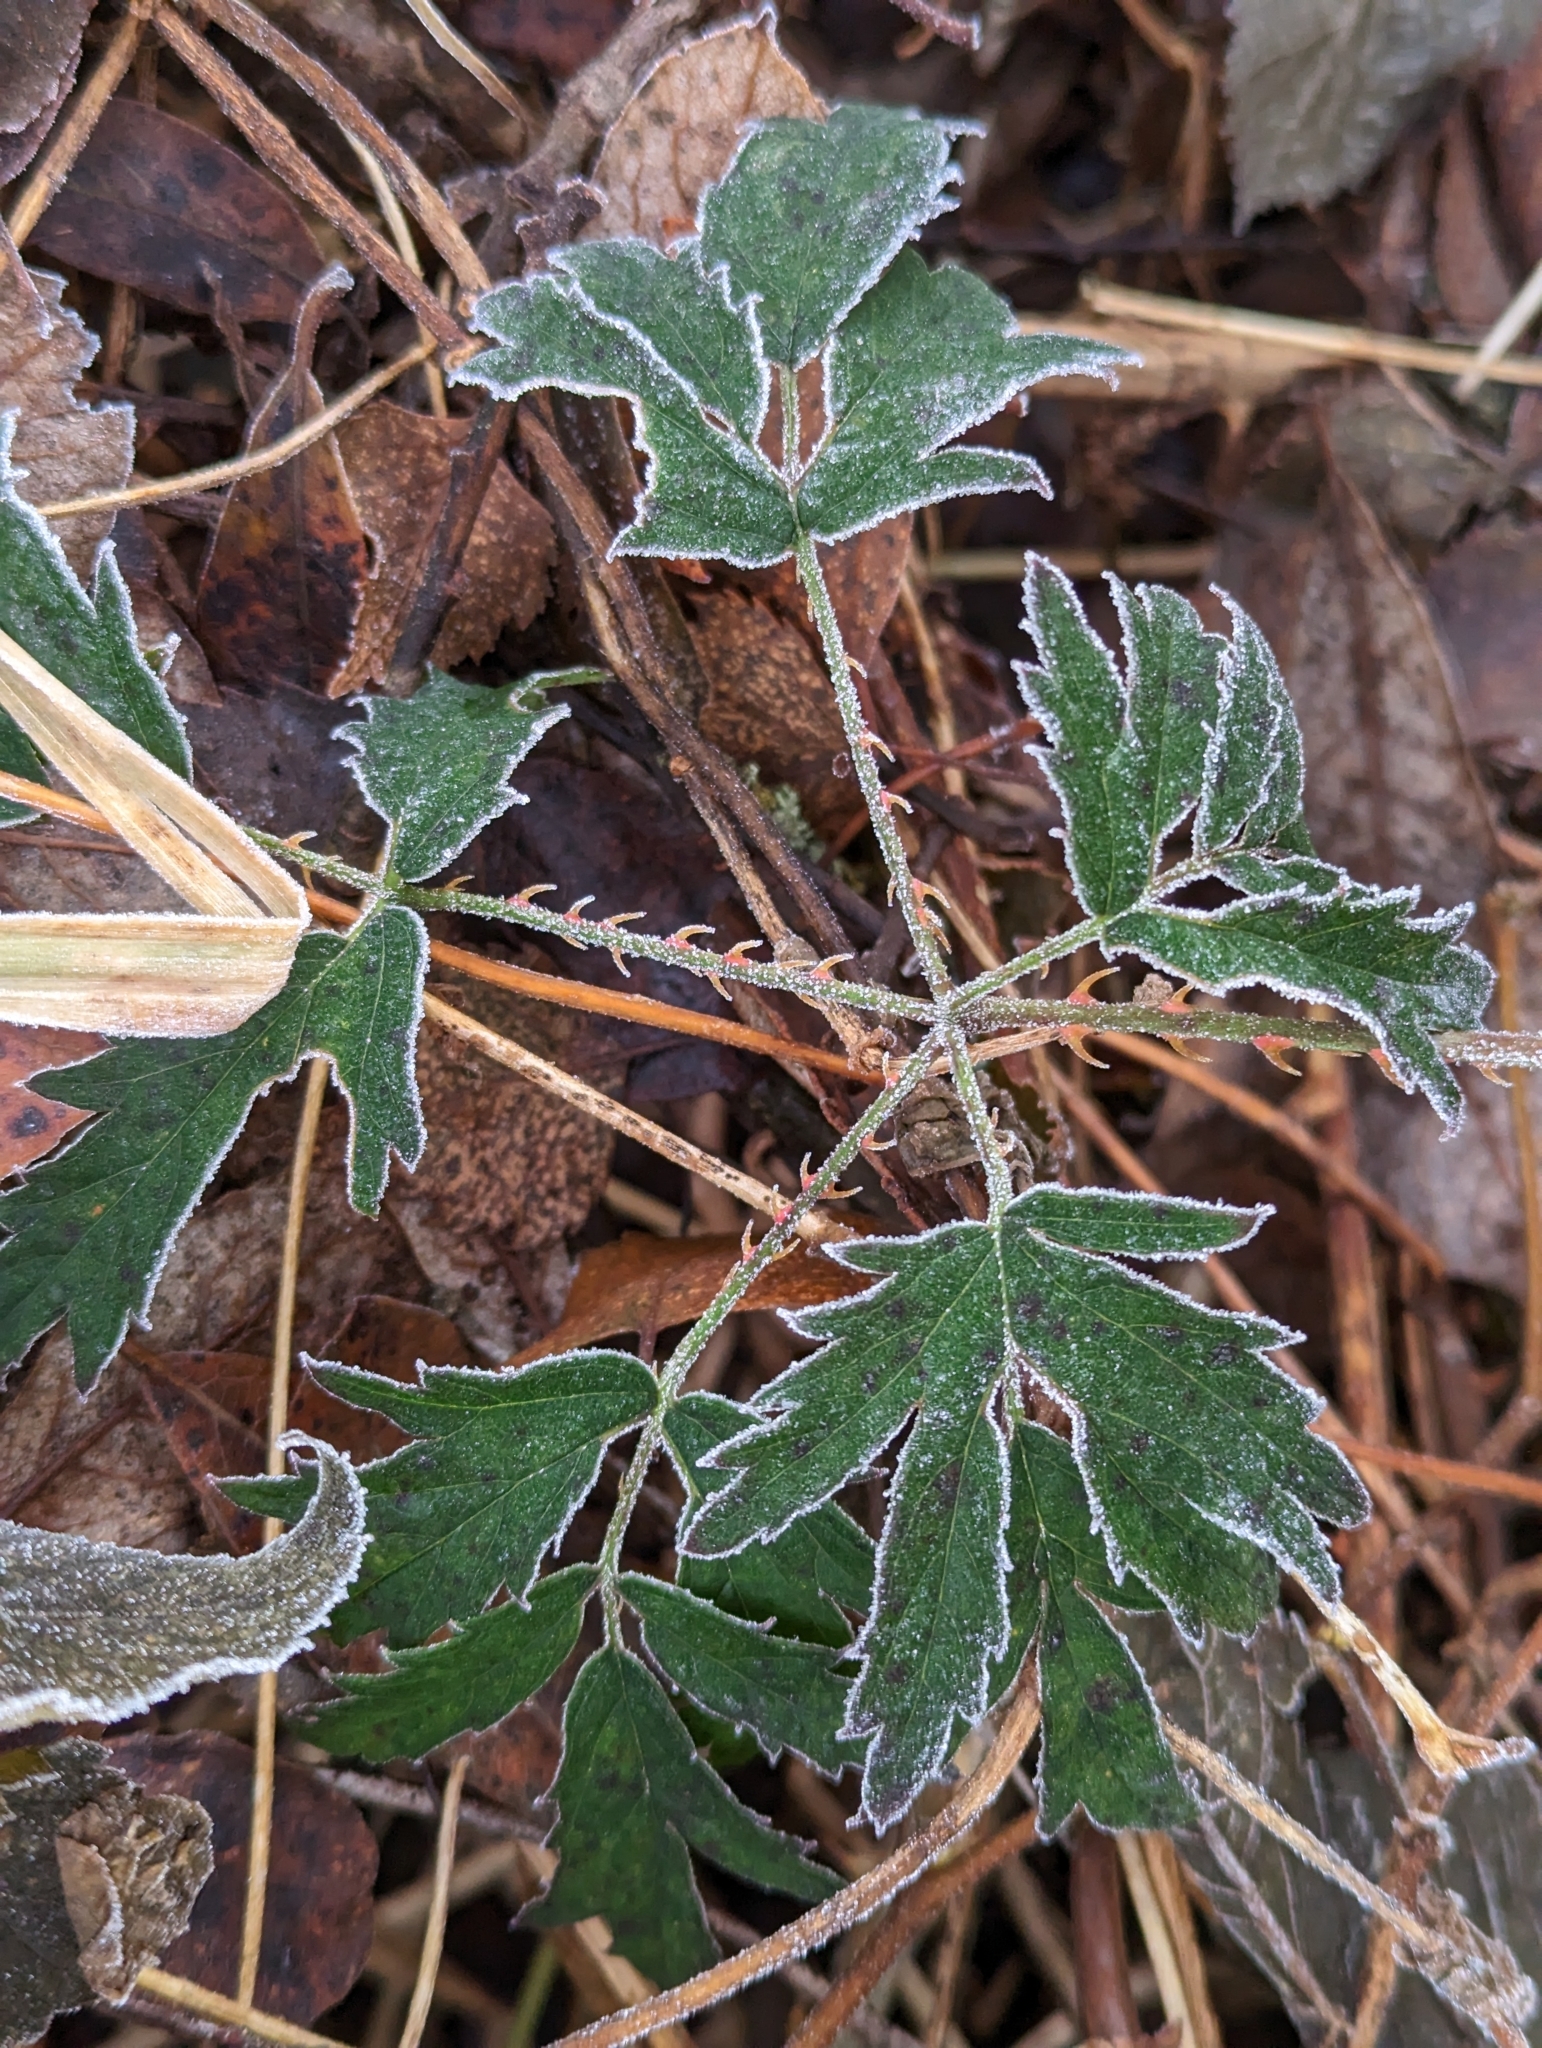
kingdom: Plantae
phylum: Tracheophyta
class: Magnoliopsida
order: Rosales
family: Rosaceae
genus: Rubus
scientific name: Rubus laciniatus
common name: Evergreen blackberry
